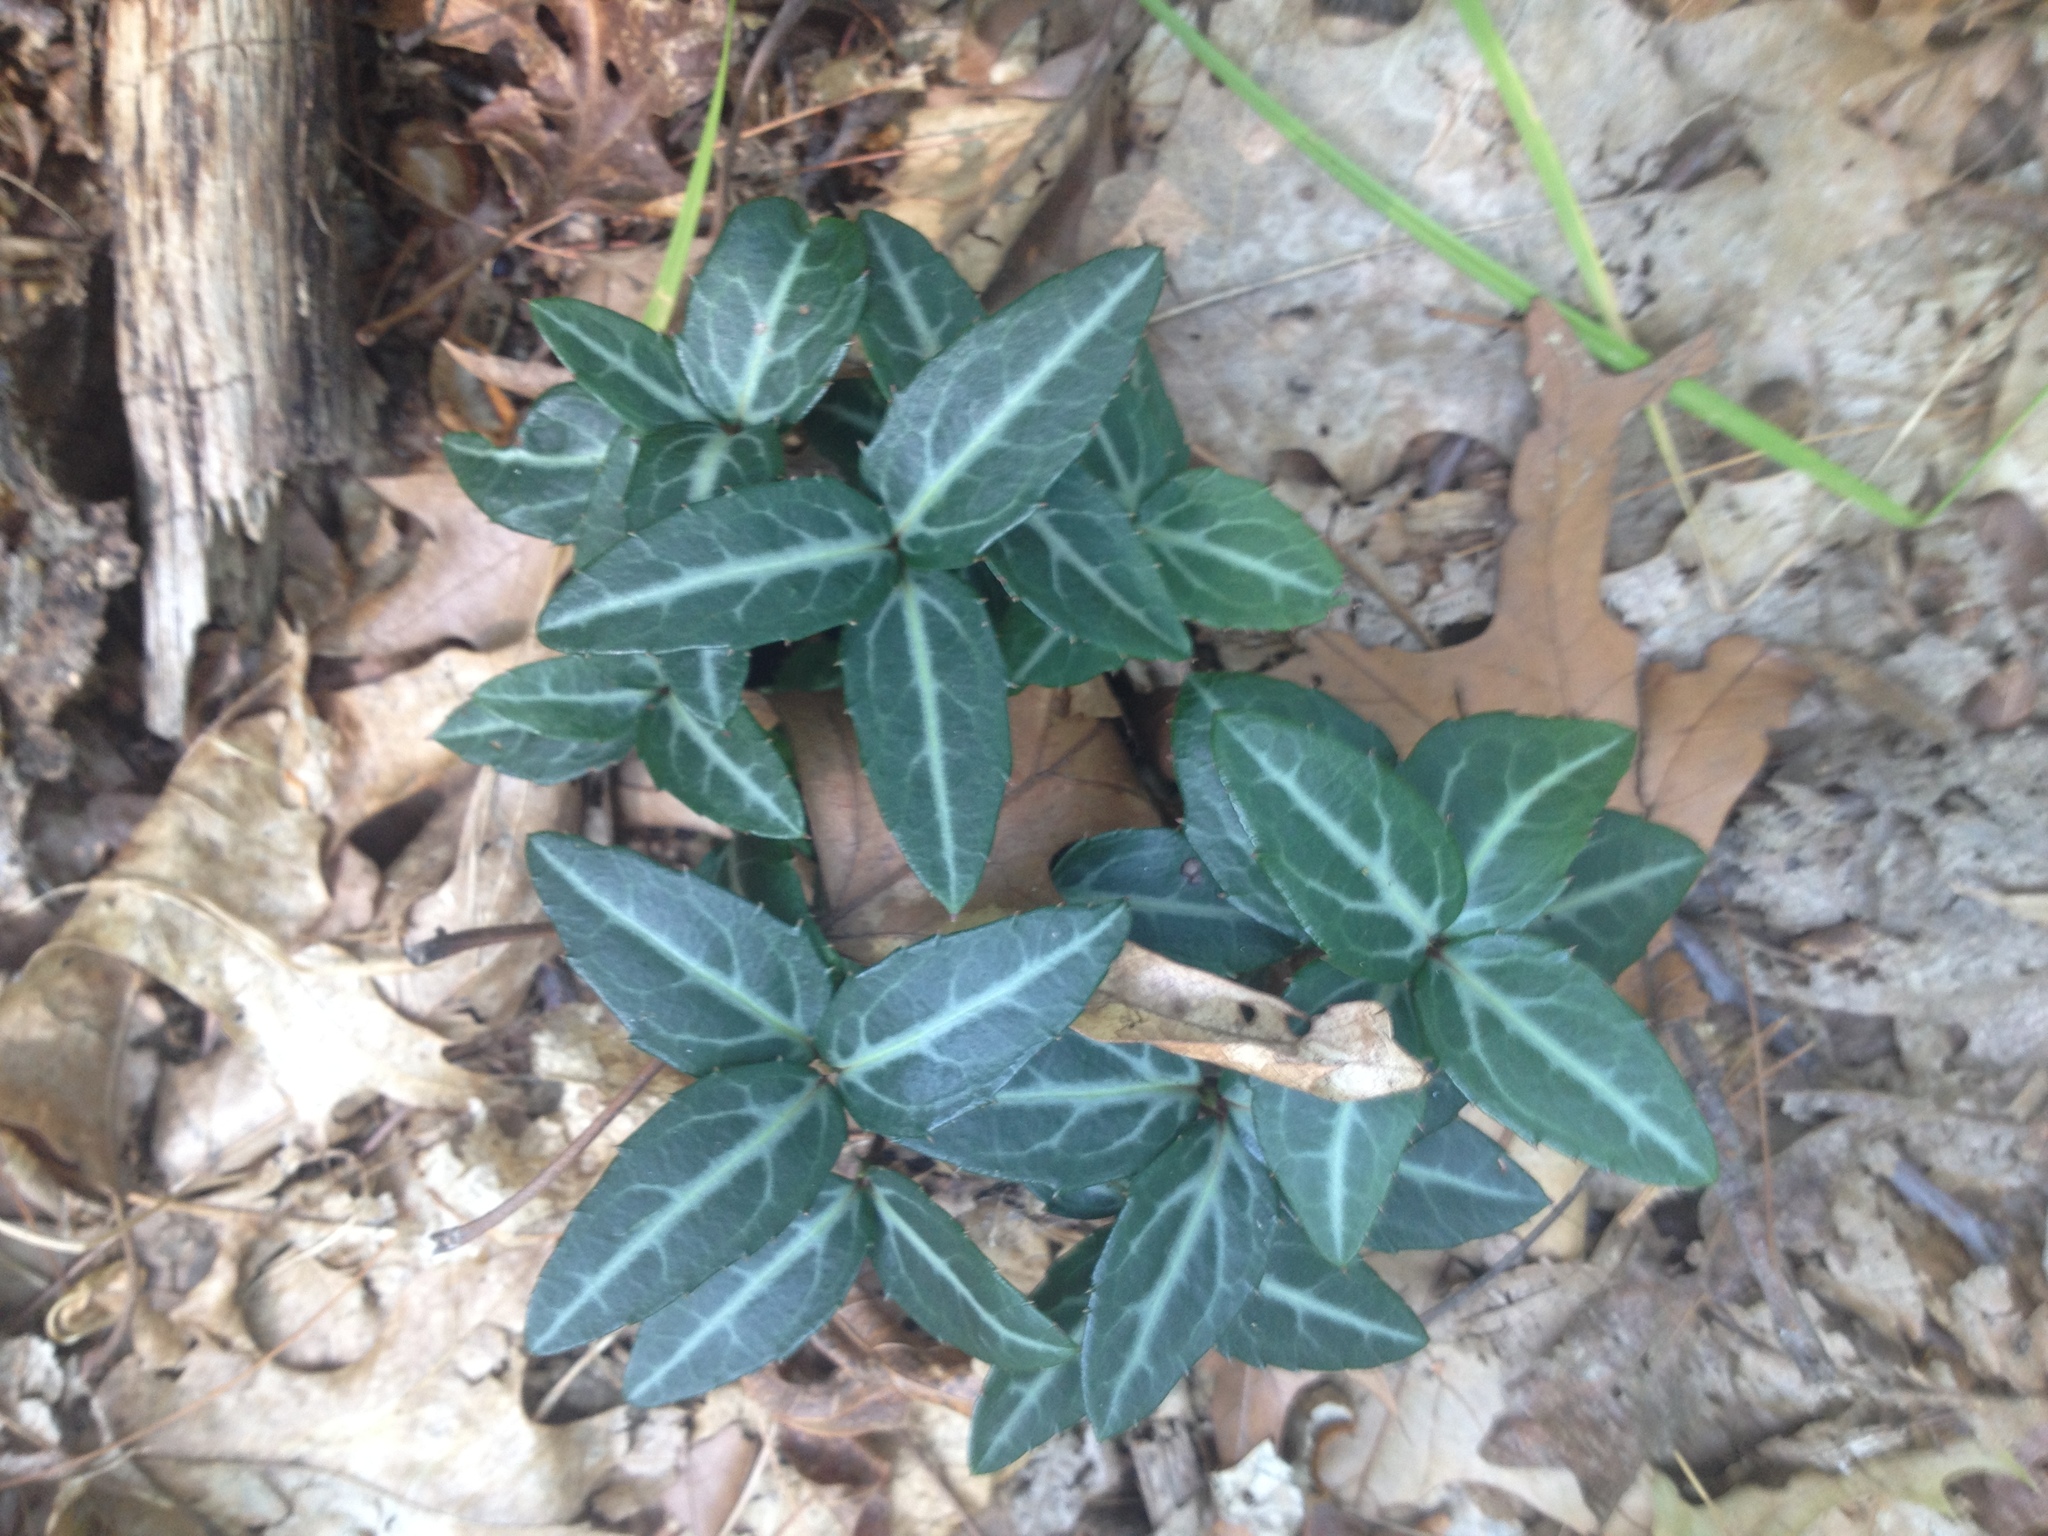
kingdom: Plantae
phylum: Tracheophyta
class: Magnoliopsida
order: Ericales
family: Ericaceae
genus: Chimaphila
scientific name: Chimaphila maculata
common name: Spotted pipsissewa
